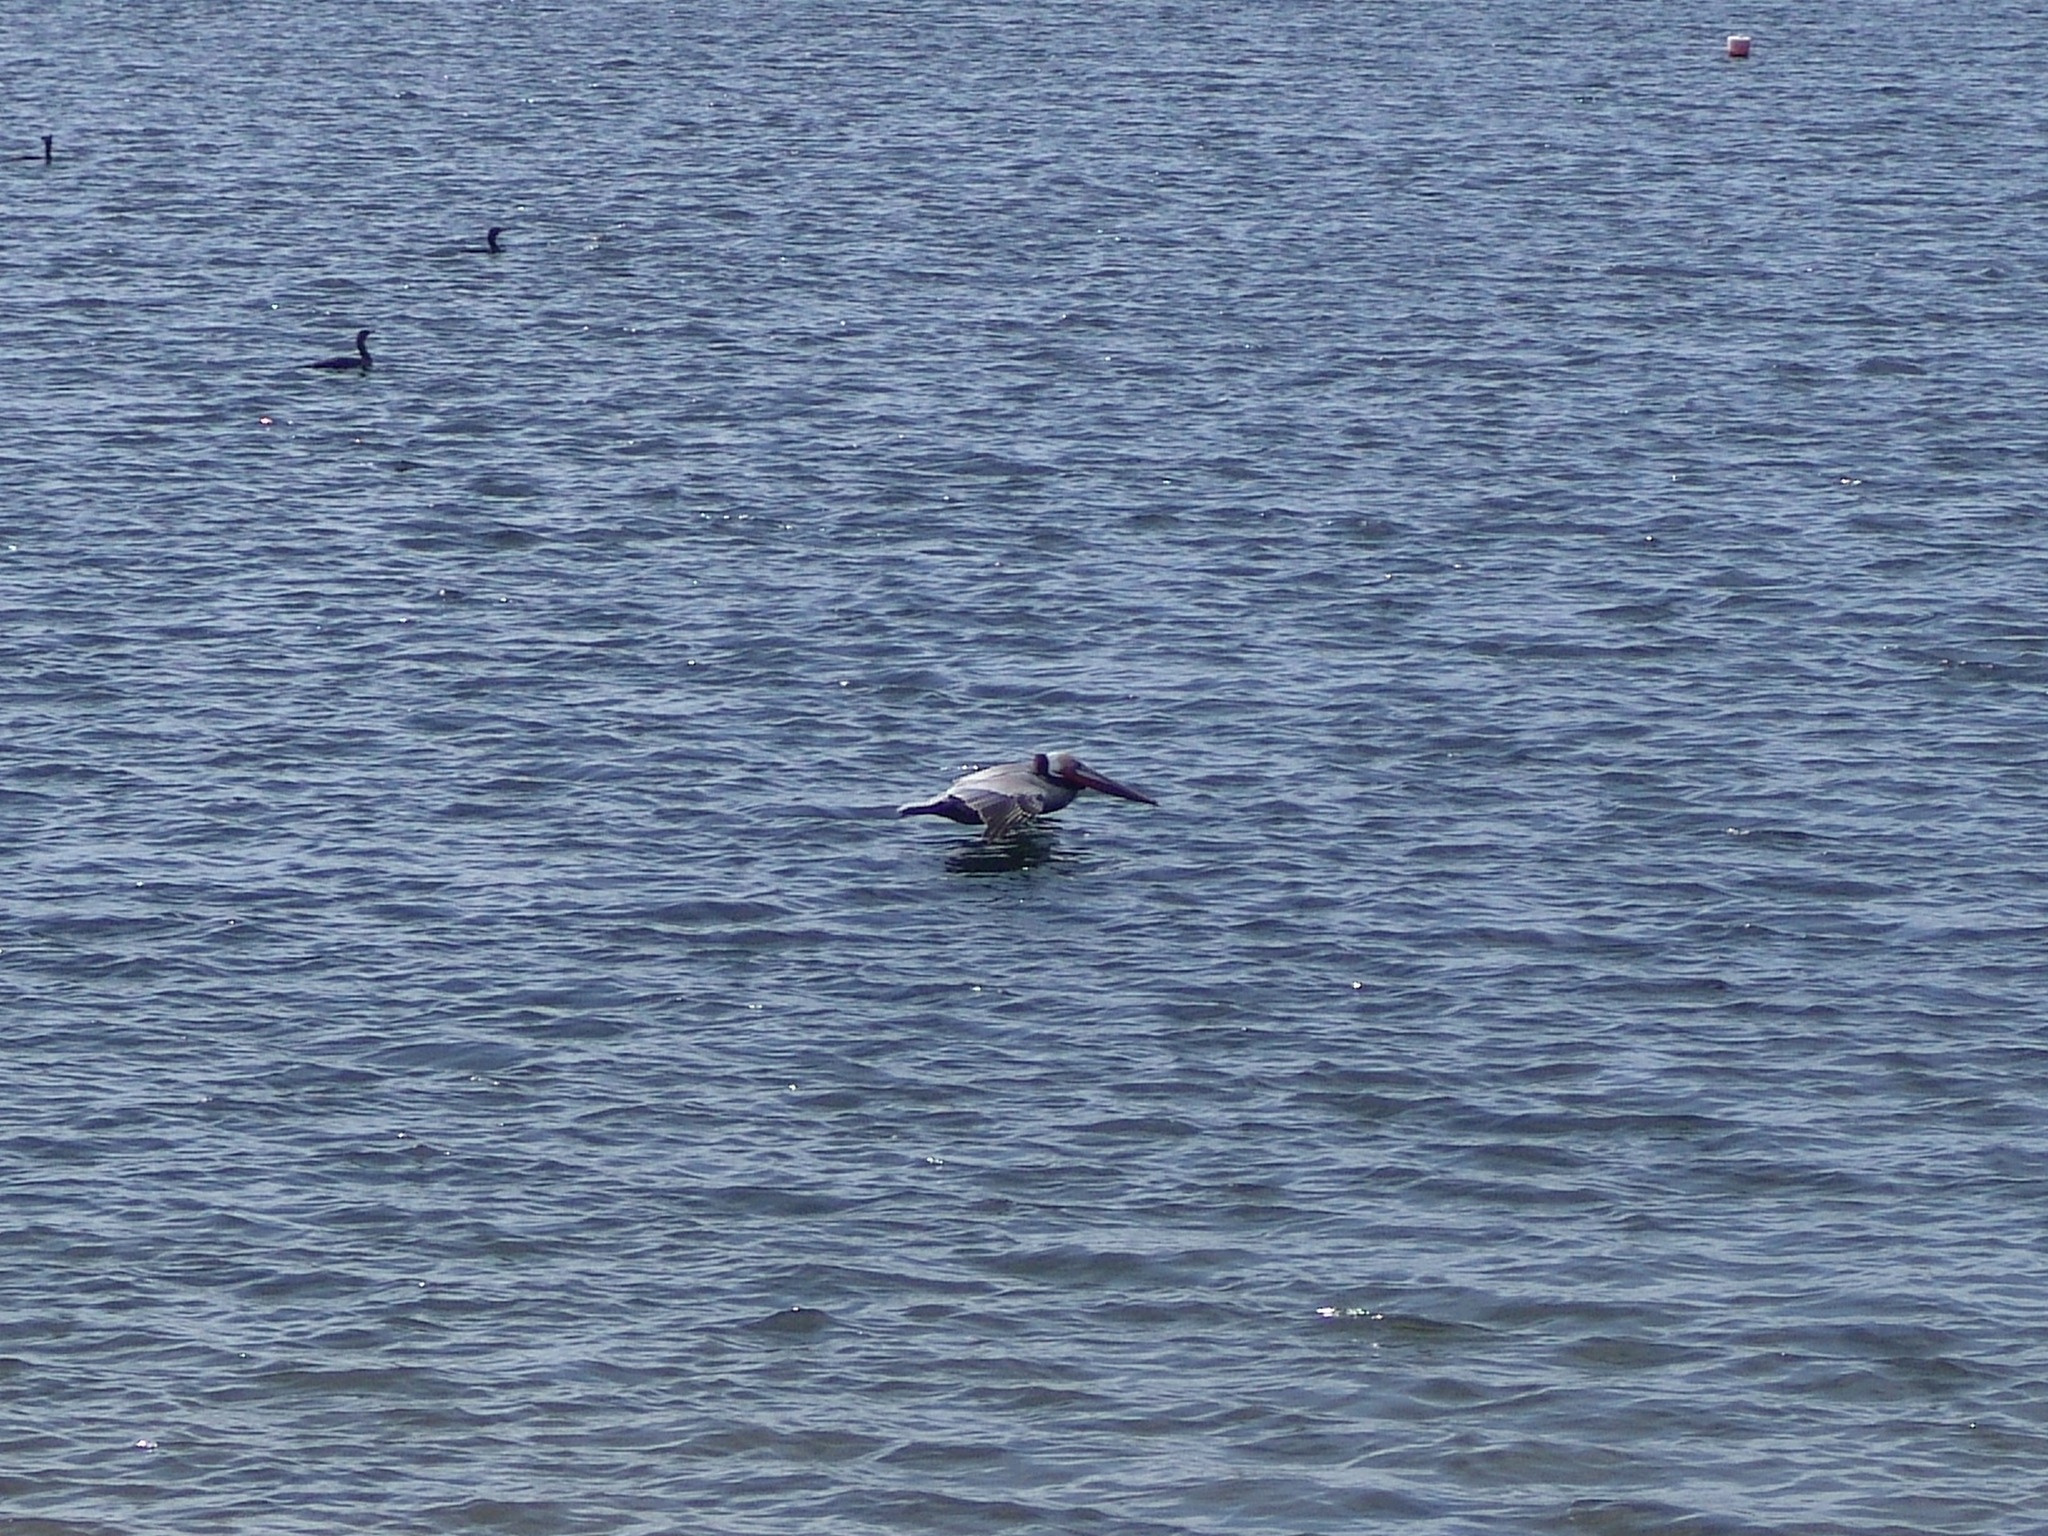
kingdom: Animalia
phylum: Chordata
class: Aves
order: Pelecaniformes
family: Pelecanidae
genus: Pelecanus
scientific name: Pelecanus occidentalis
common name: Brown pelican
